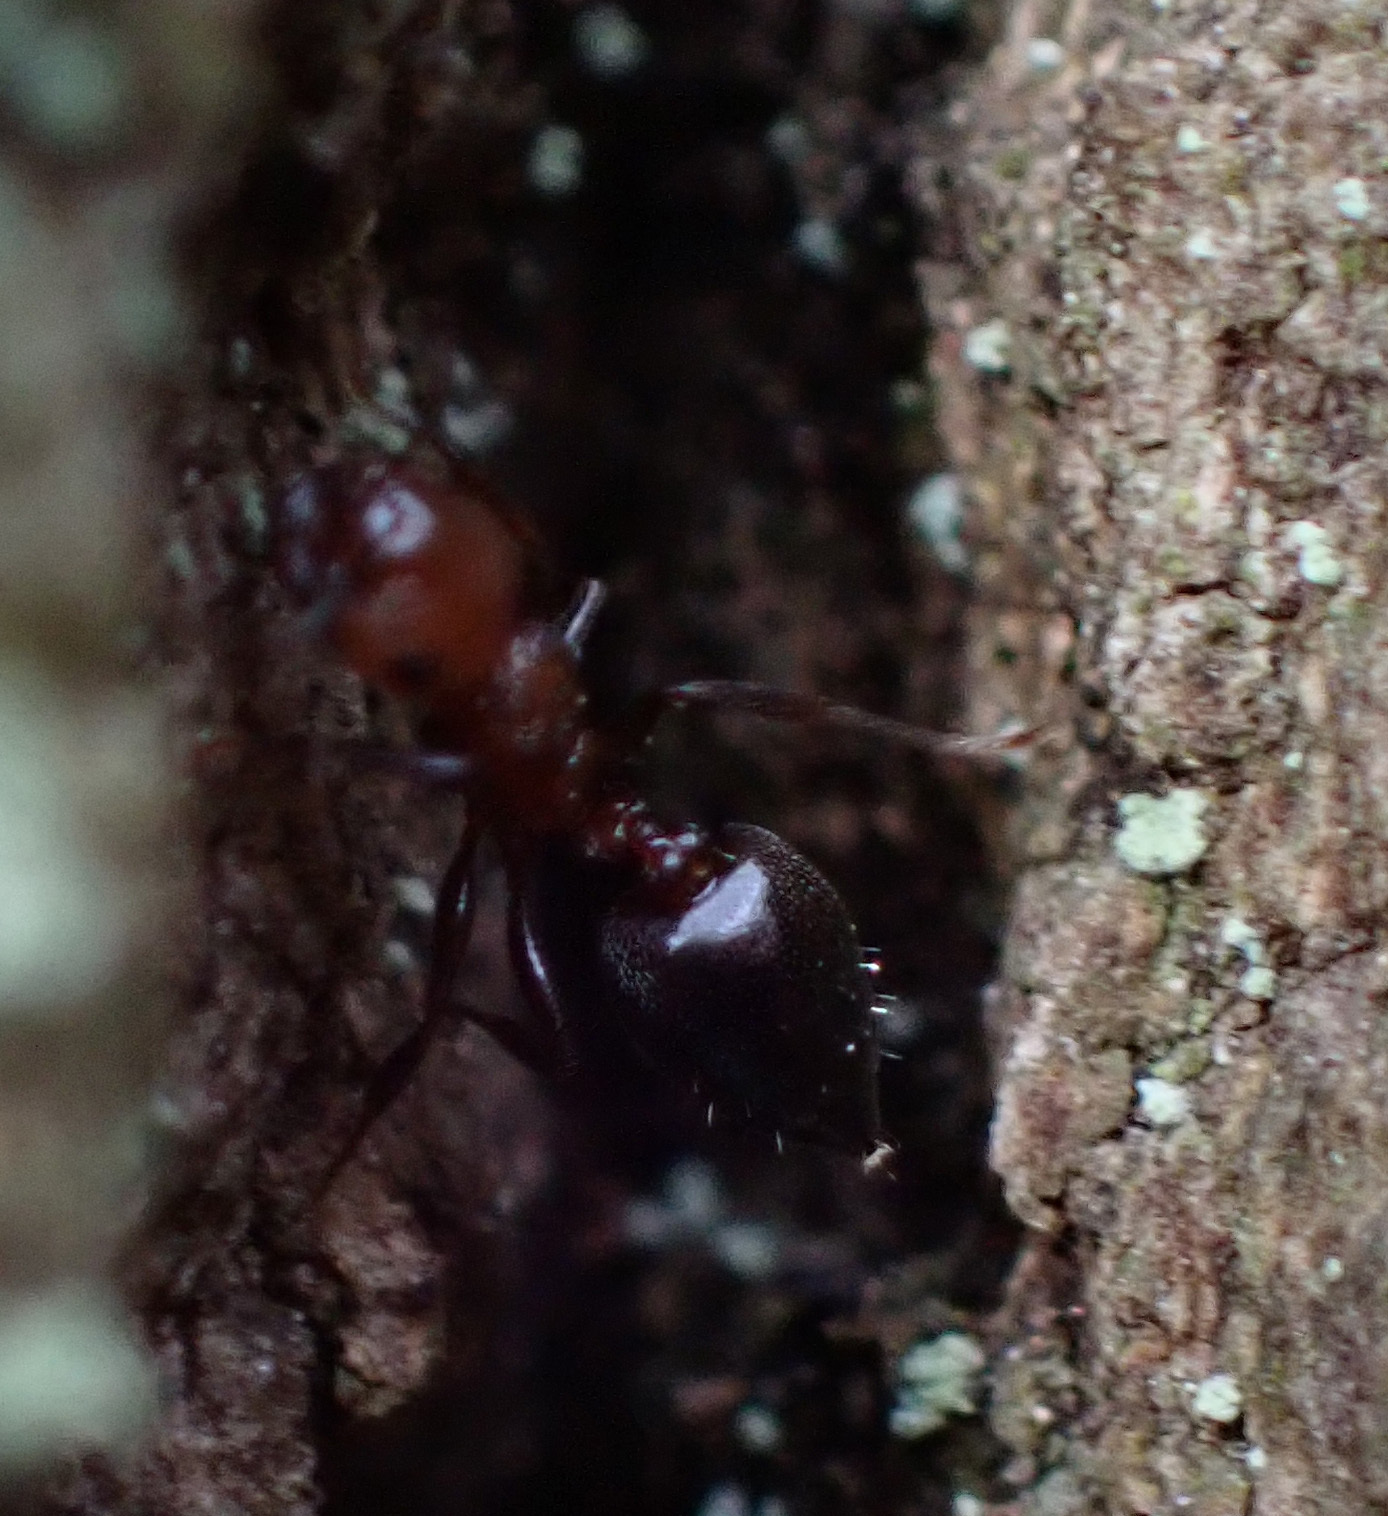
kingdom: Animalia
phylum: Arthropoda
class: Insecta
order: Hymenoptera
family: Formicidae
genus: Crematogaster
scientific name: Crematogaster schmidti
